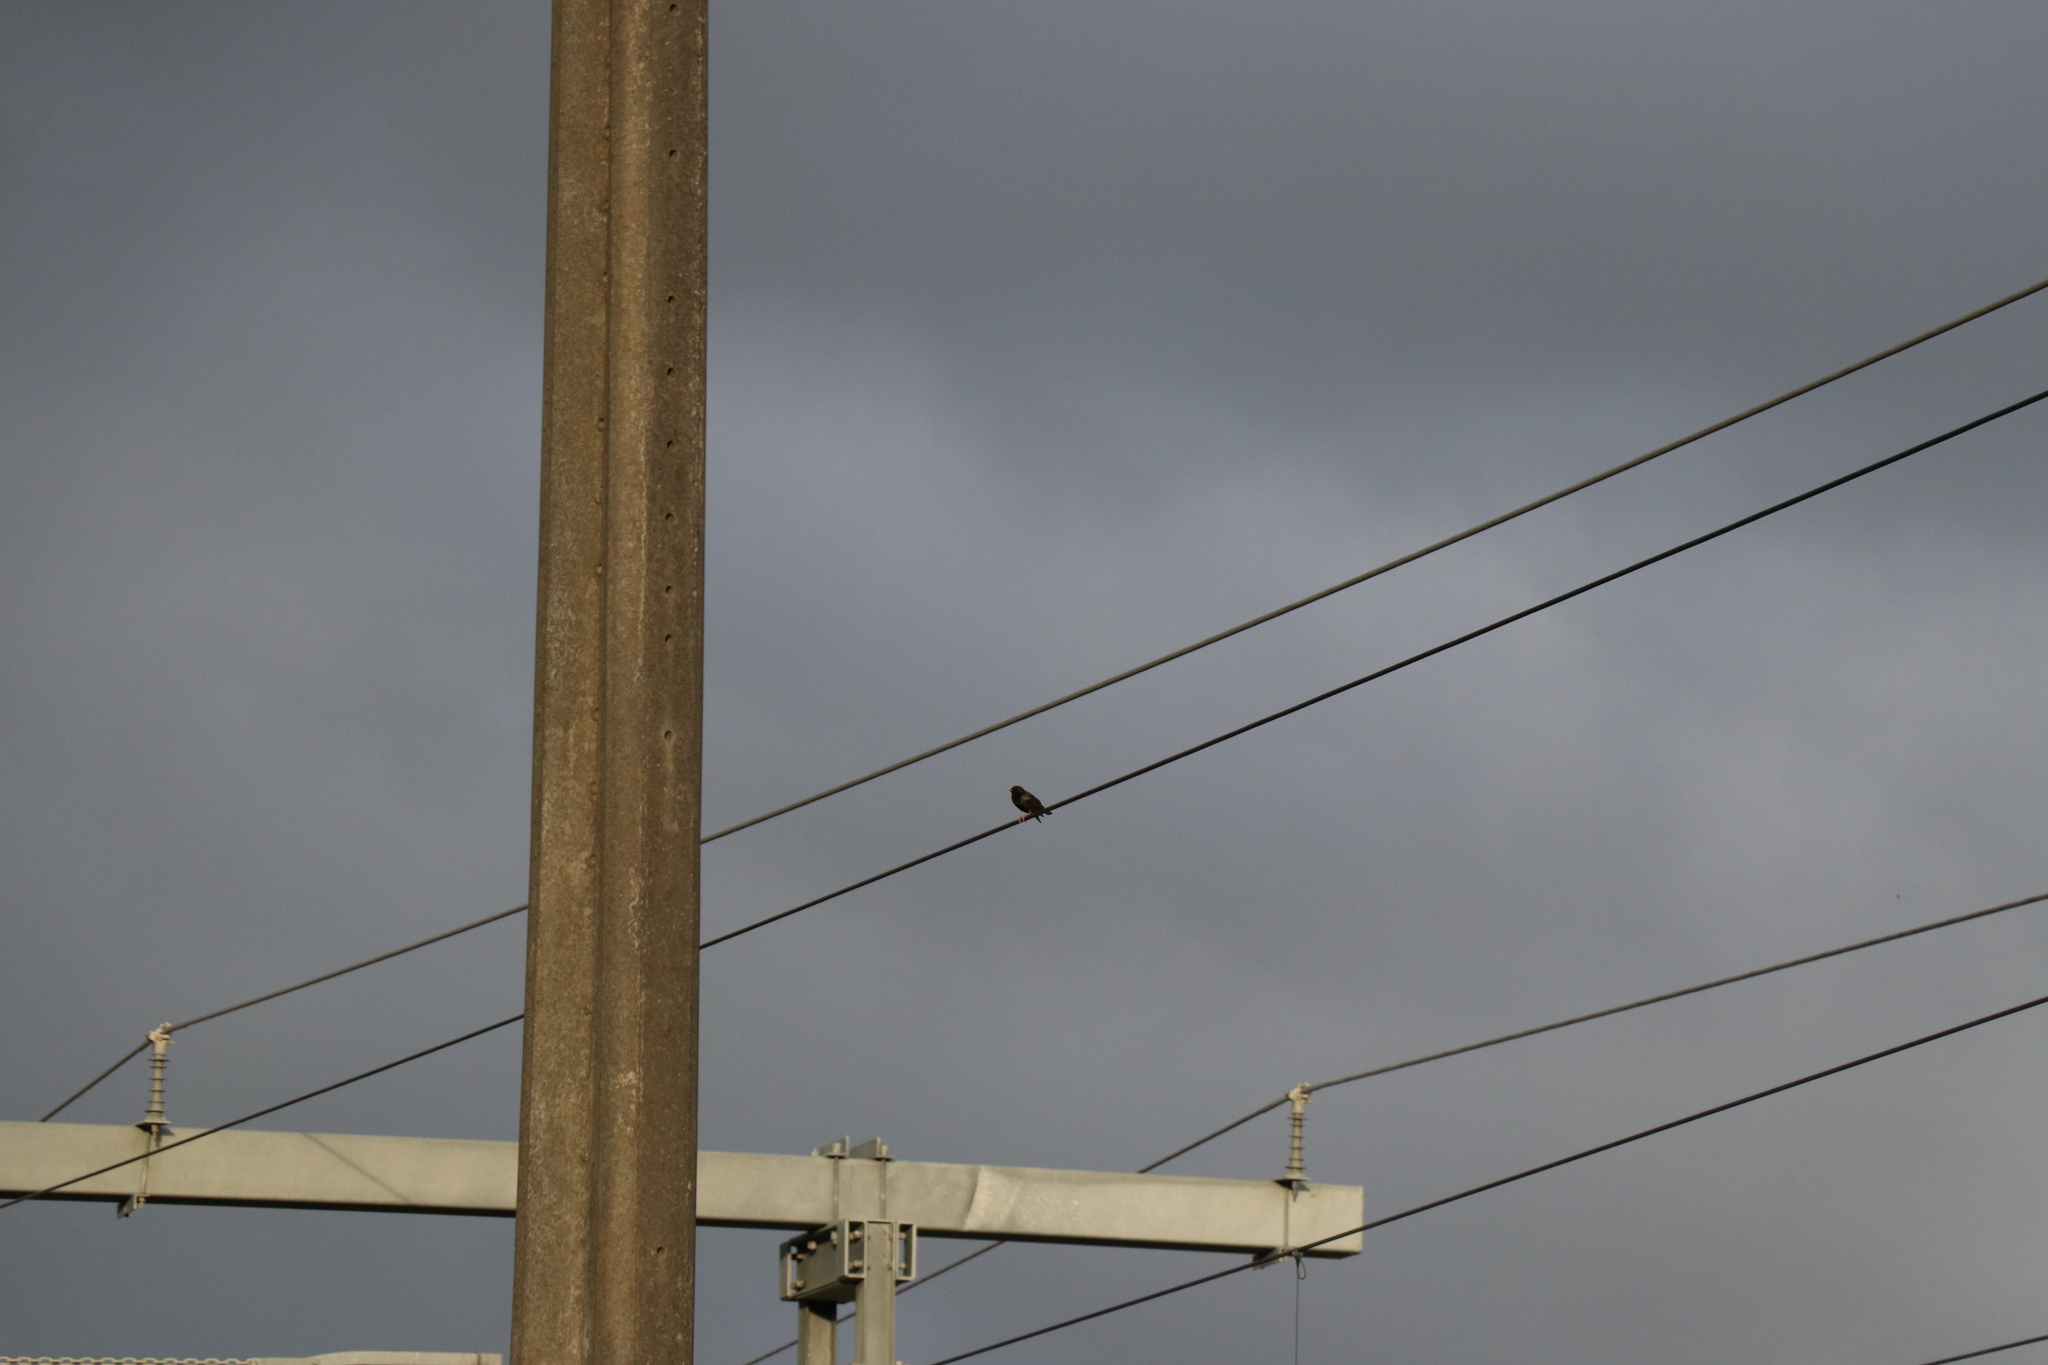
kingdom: Animalia
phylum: Chordata
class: Aves
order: Passeriformes
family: Sturnidae
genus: Sturnus
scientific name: Sturnus vulgaris
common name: Common starling
